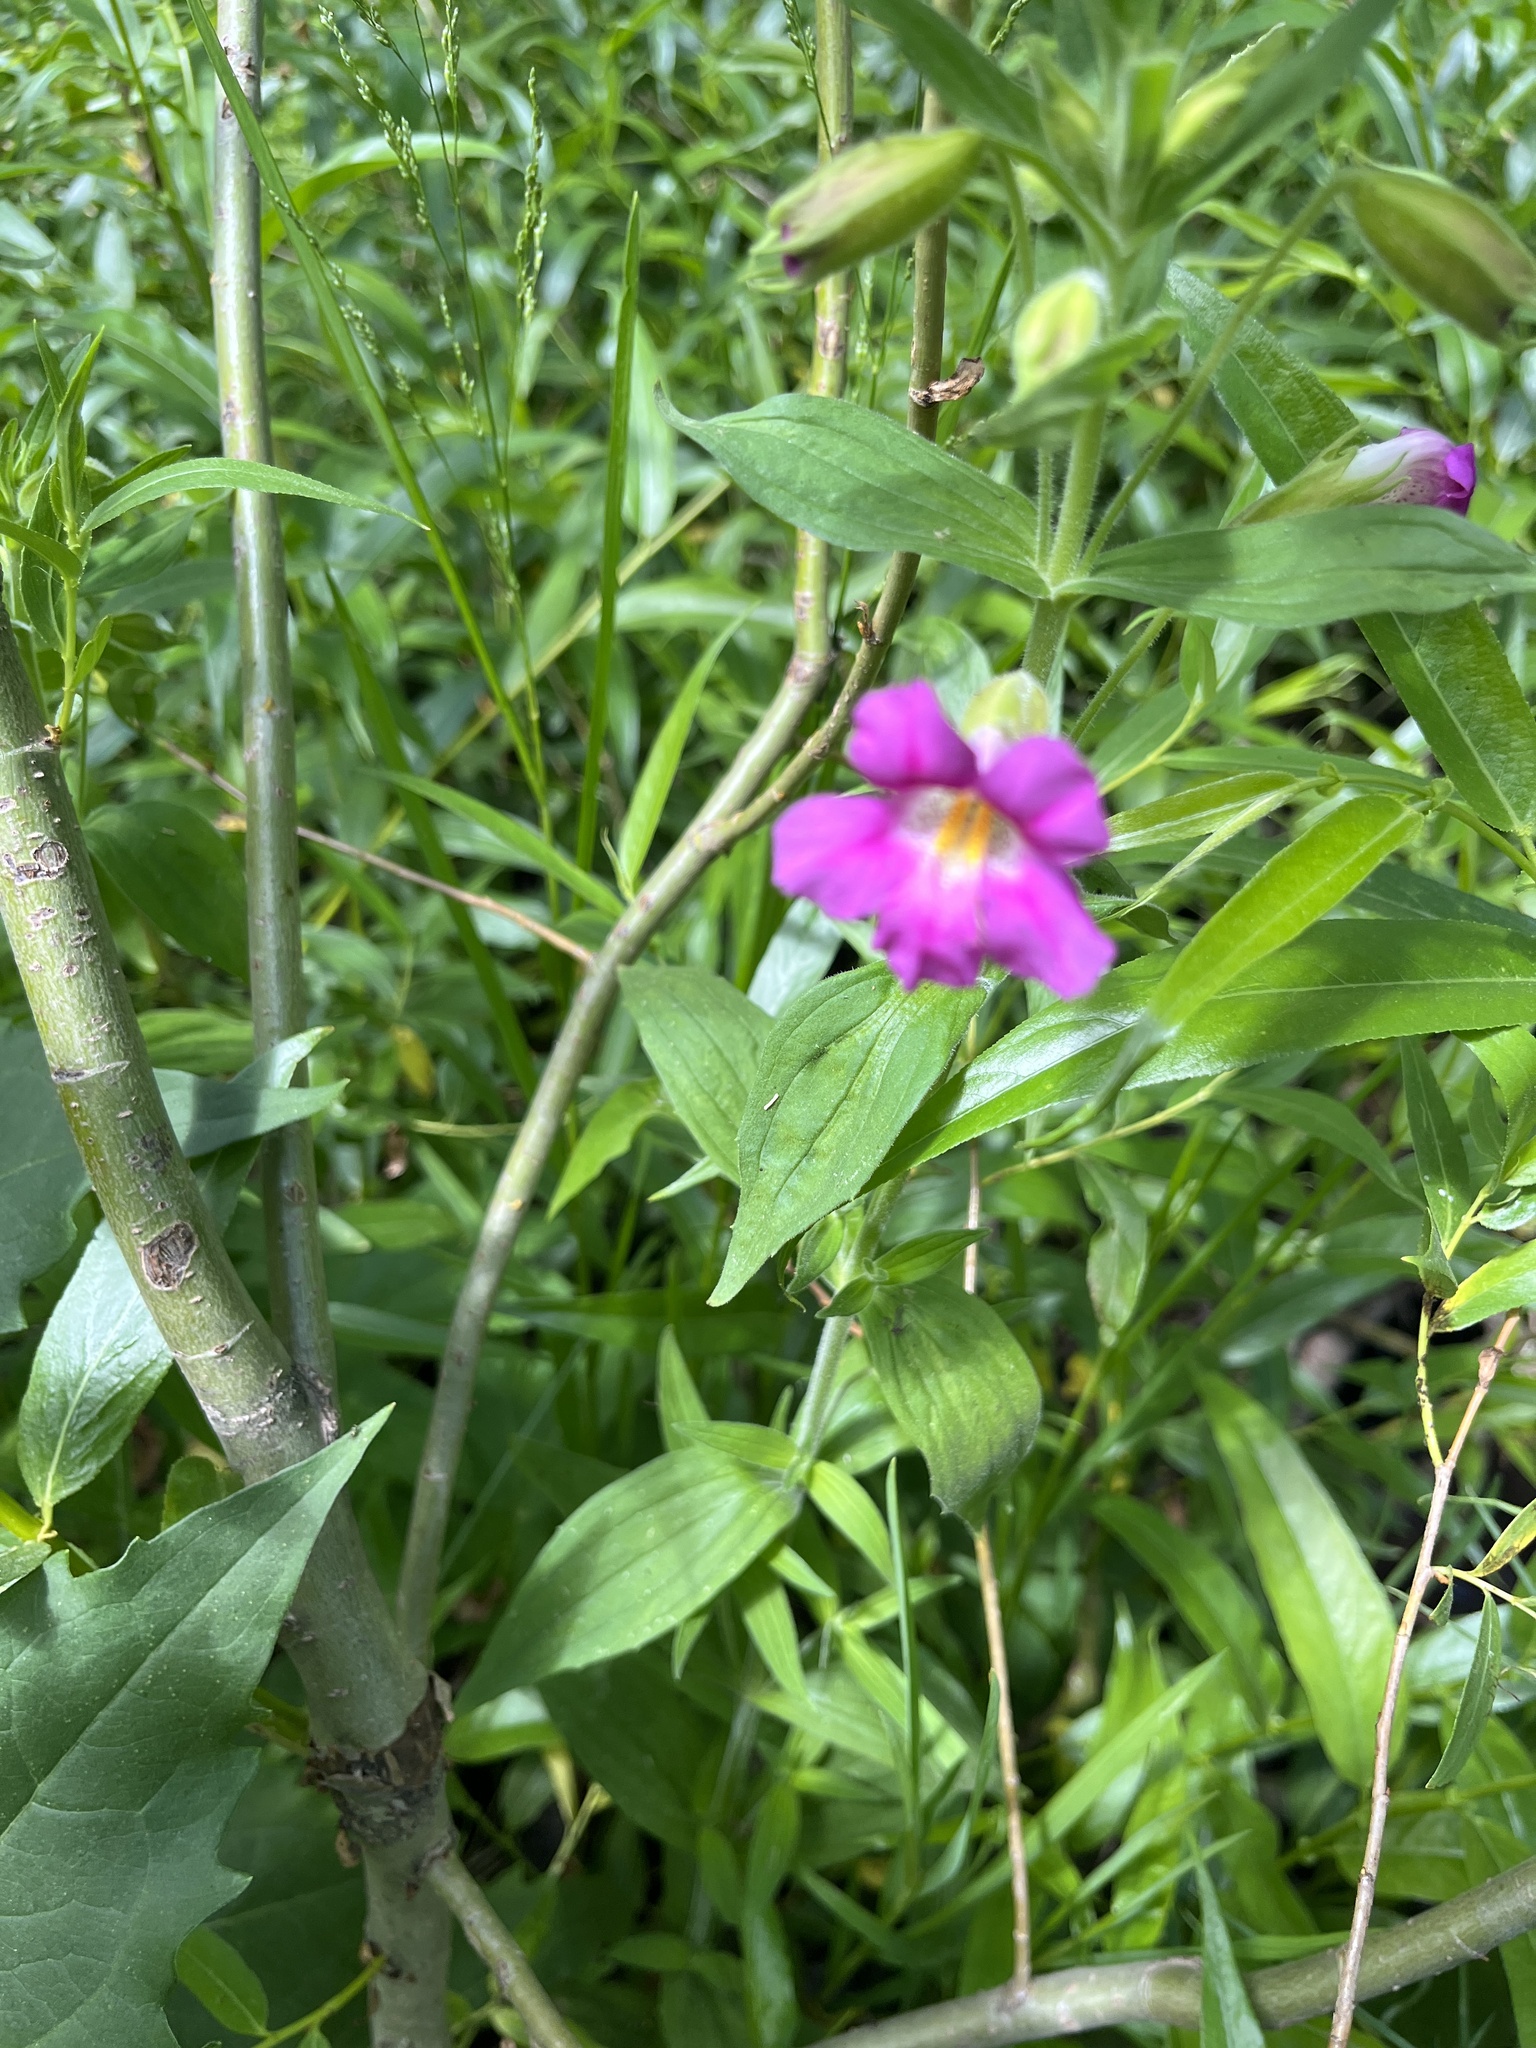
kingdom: Plantae
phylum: Tracheophyta
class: Magnoliopsida
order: Lamiales
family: Phrymaceae
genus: Erythranthe
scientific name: Erythranthe lewisii
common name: Lewis's monkey-flower
